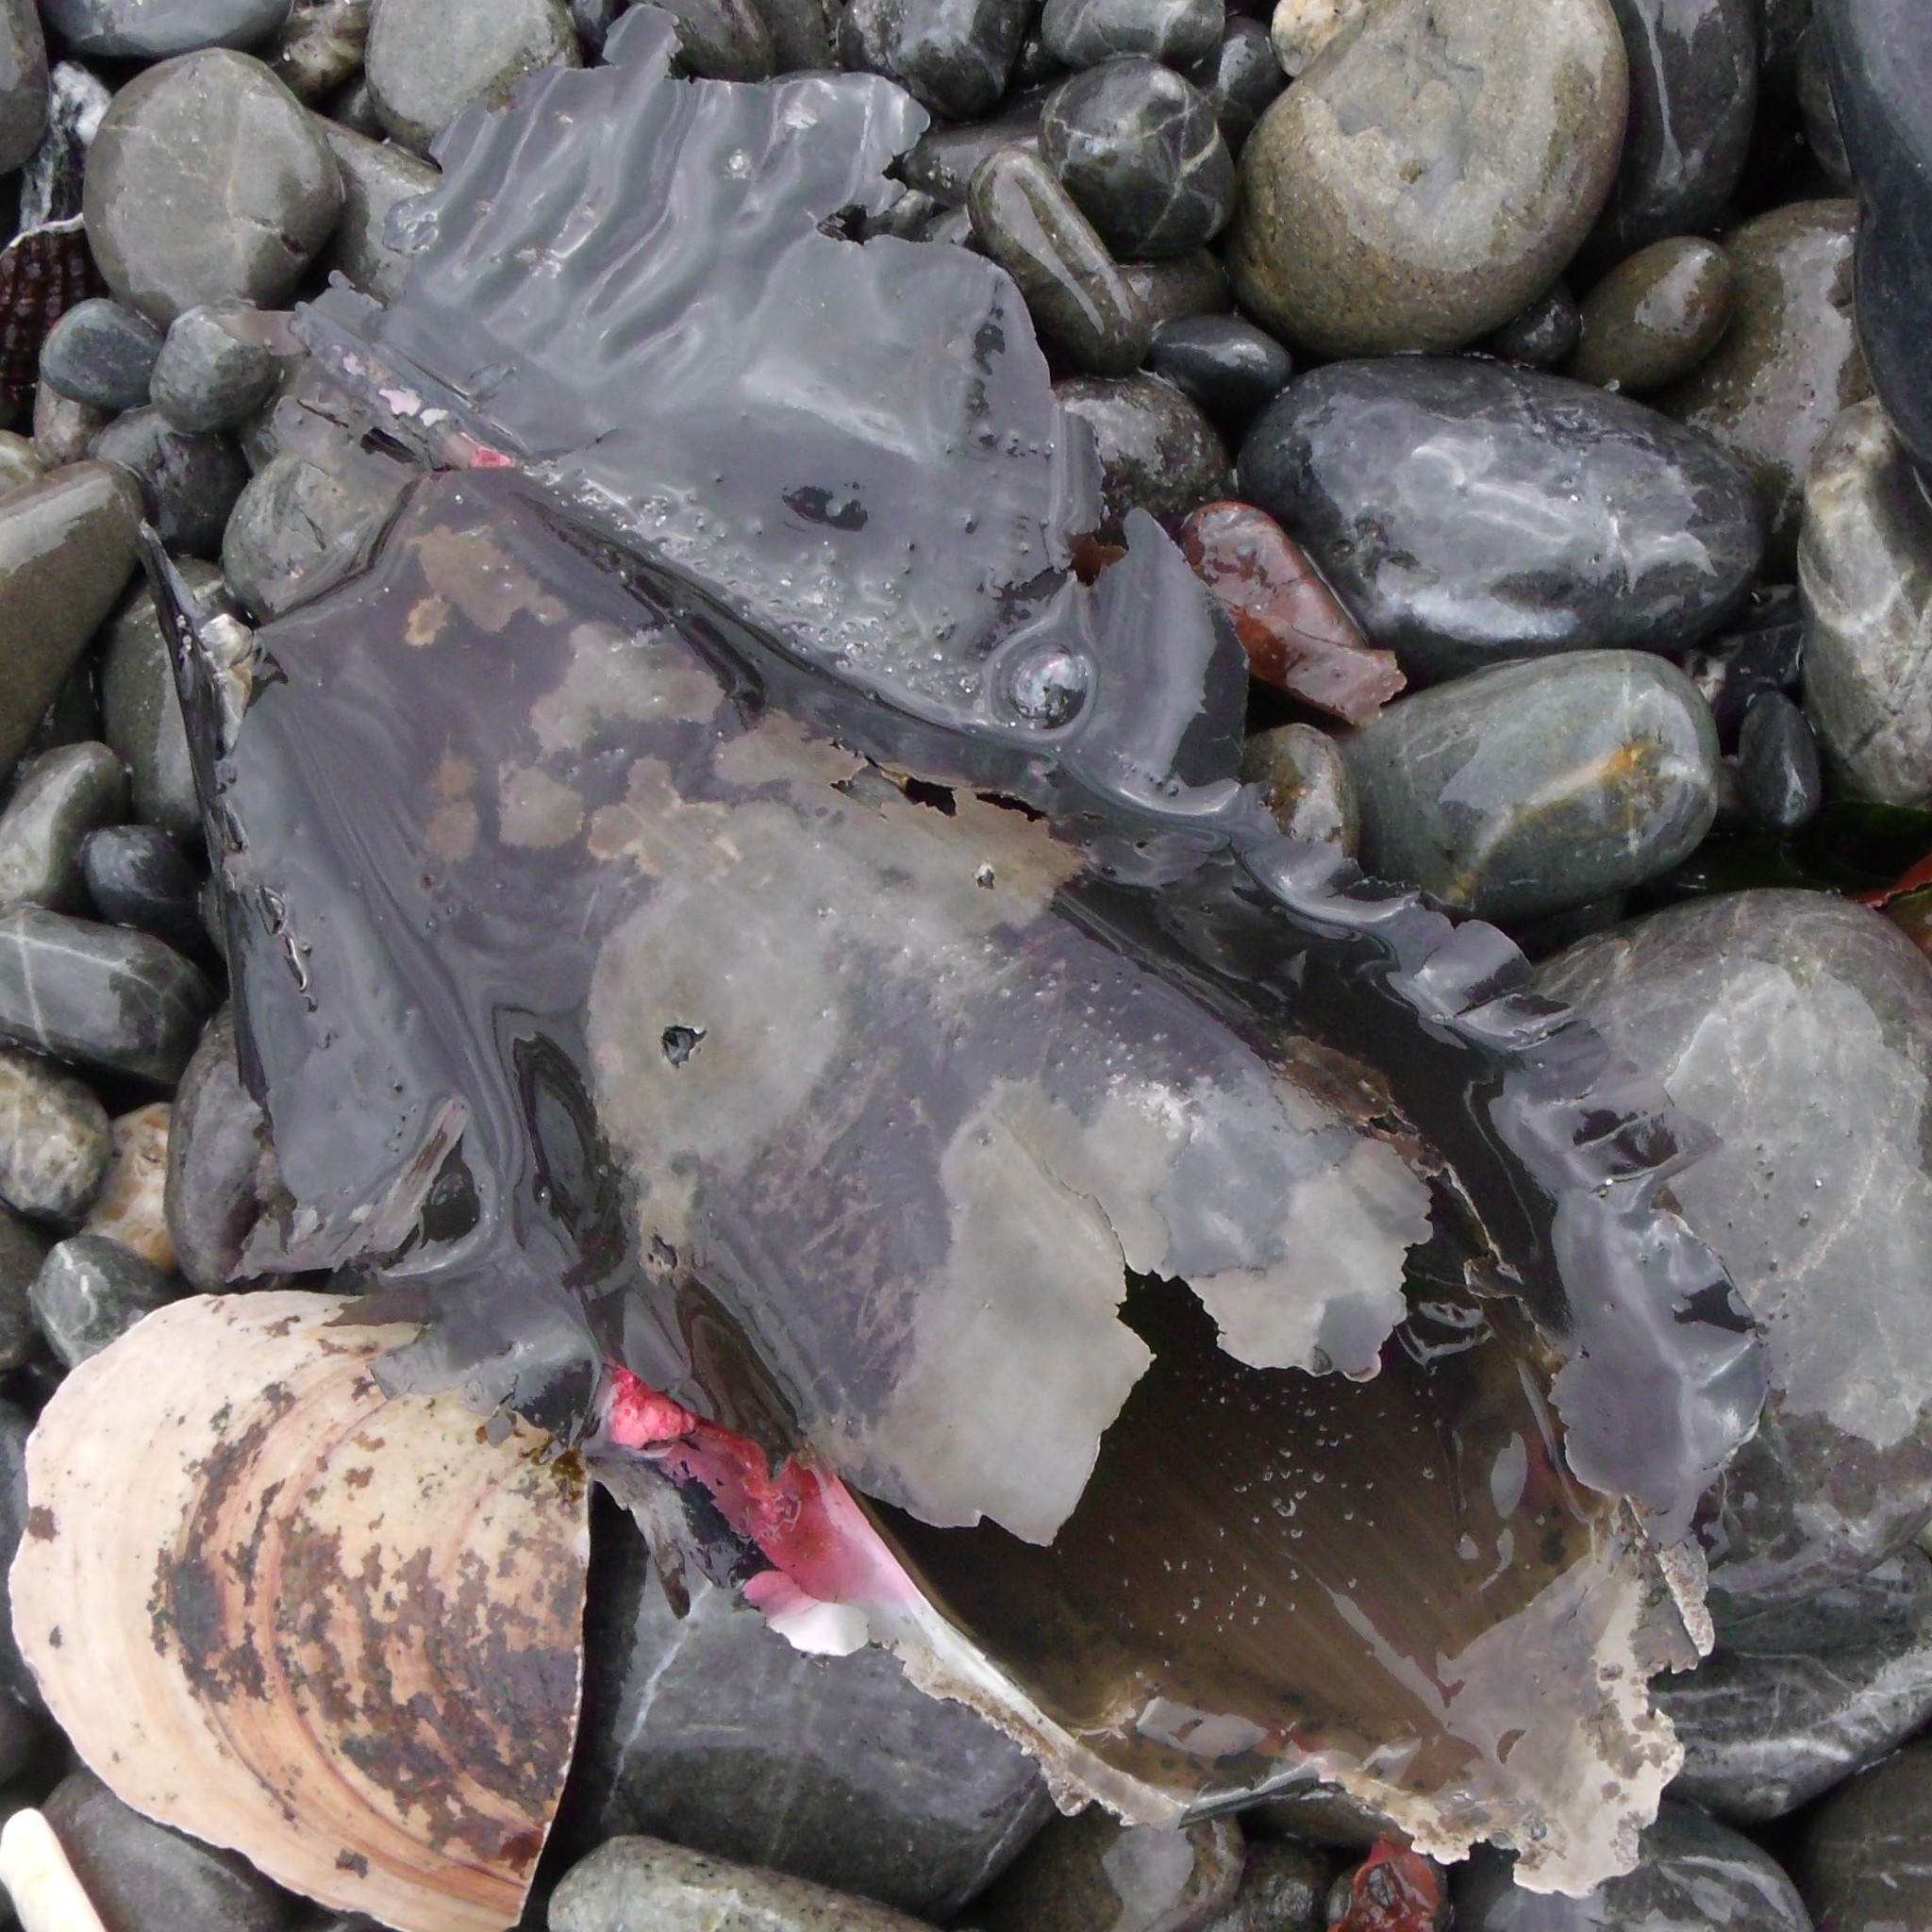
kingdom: Animalia
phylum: Chordata
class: Holocephali
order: Chimaeriformes
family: Callorhinchidae
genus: Callorhinchus
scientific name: Callorhinchus milii
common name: Elephant fish
